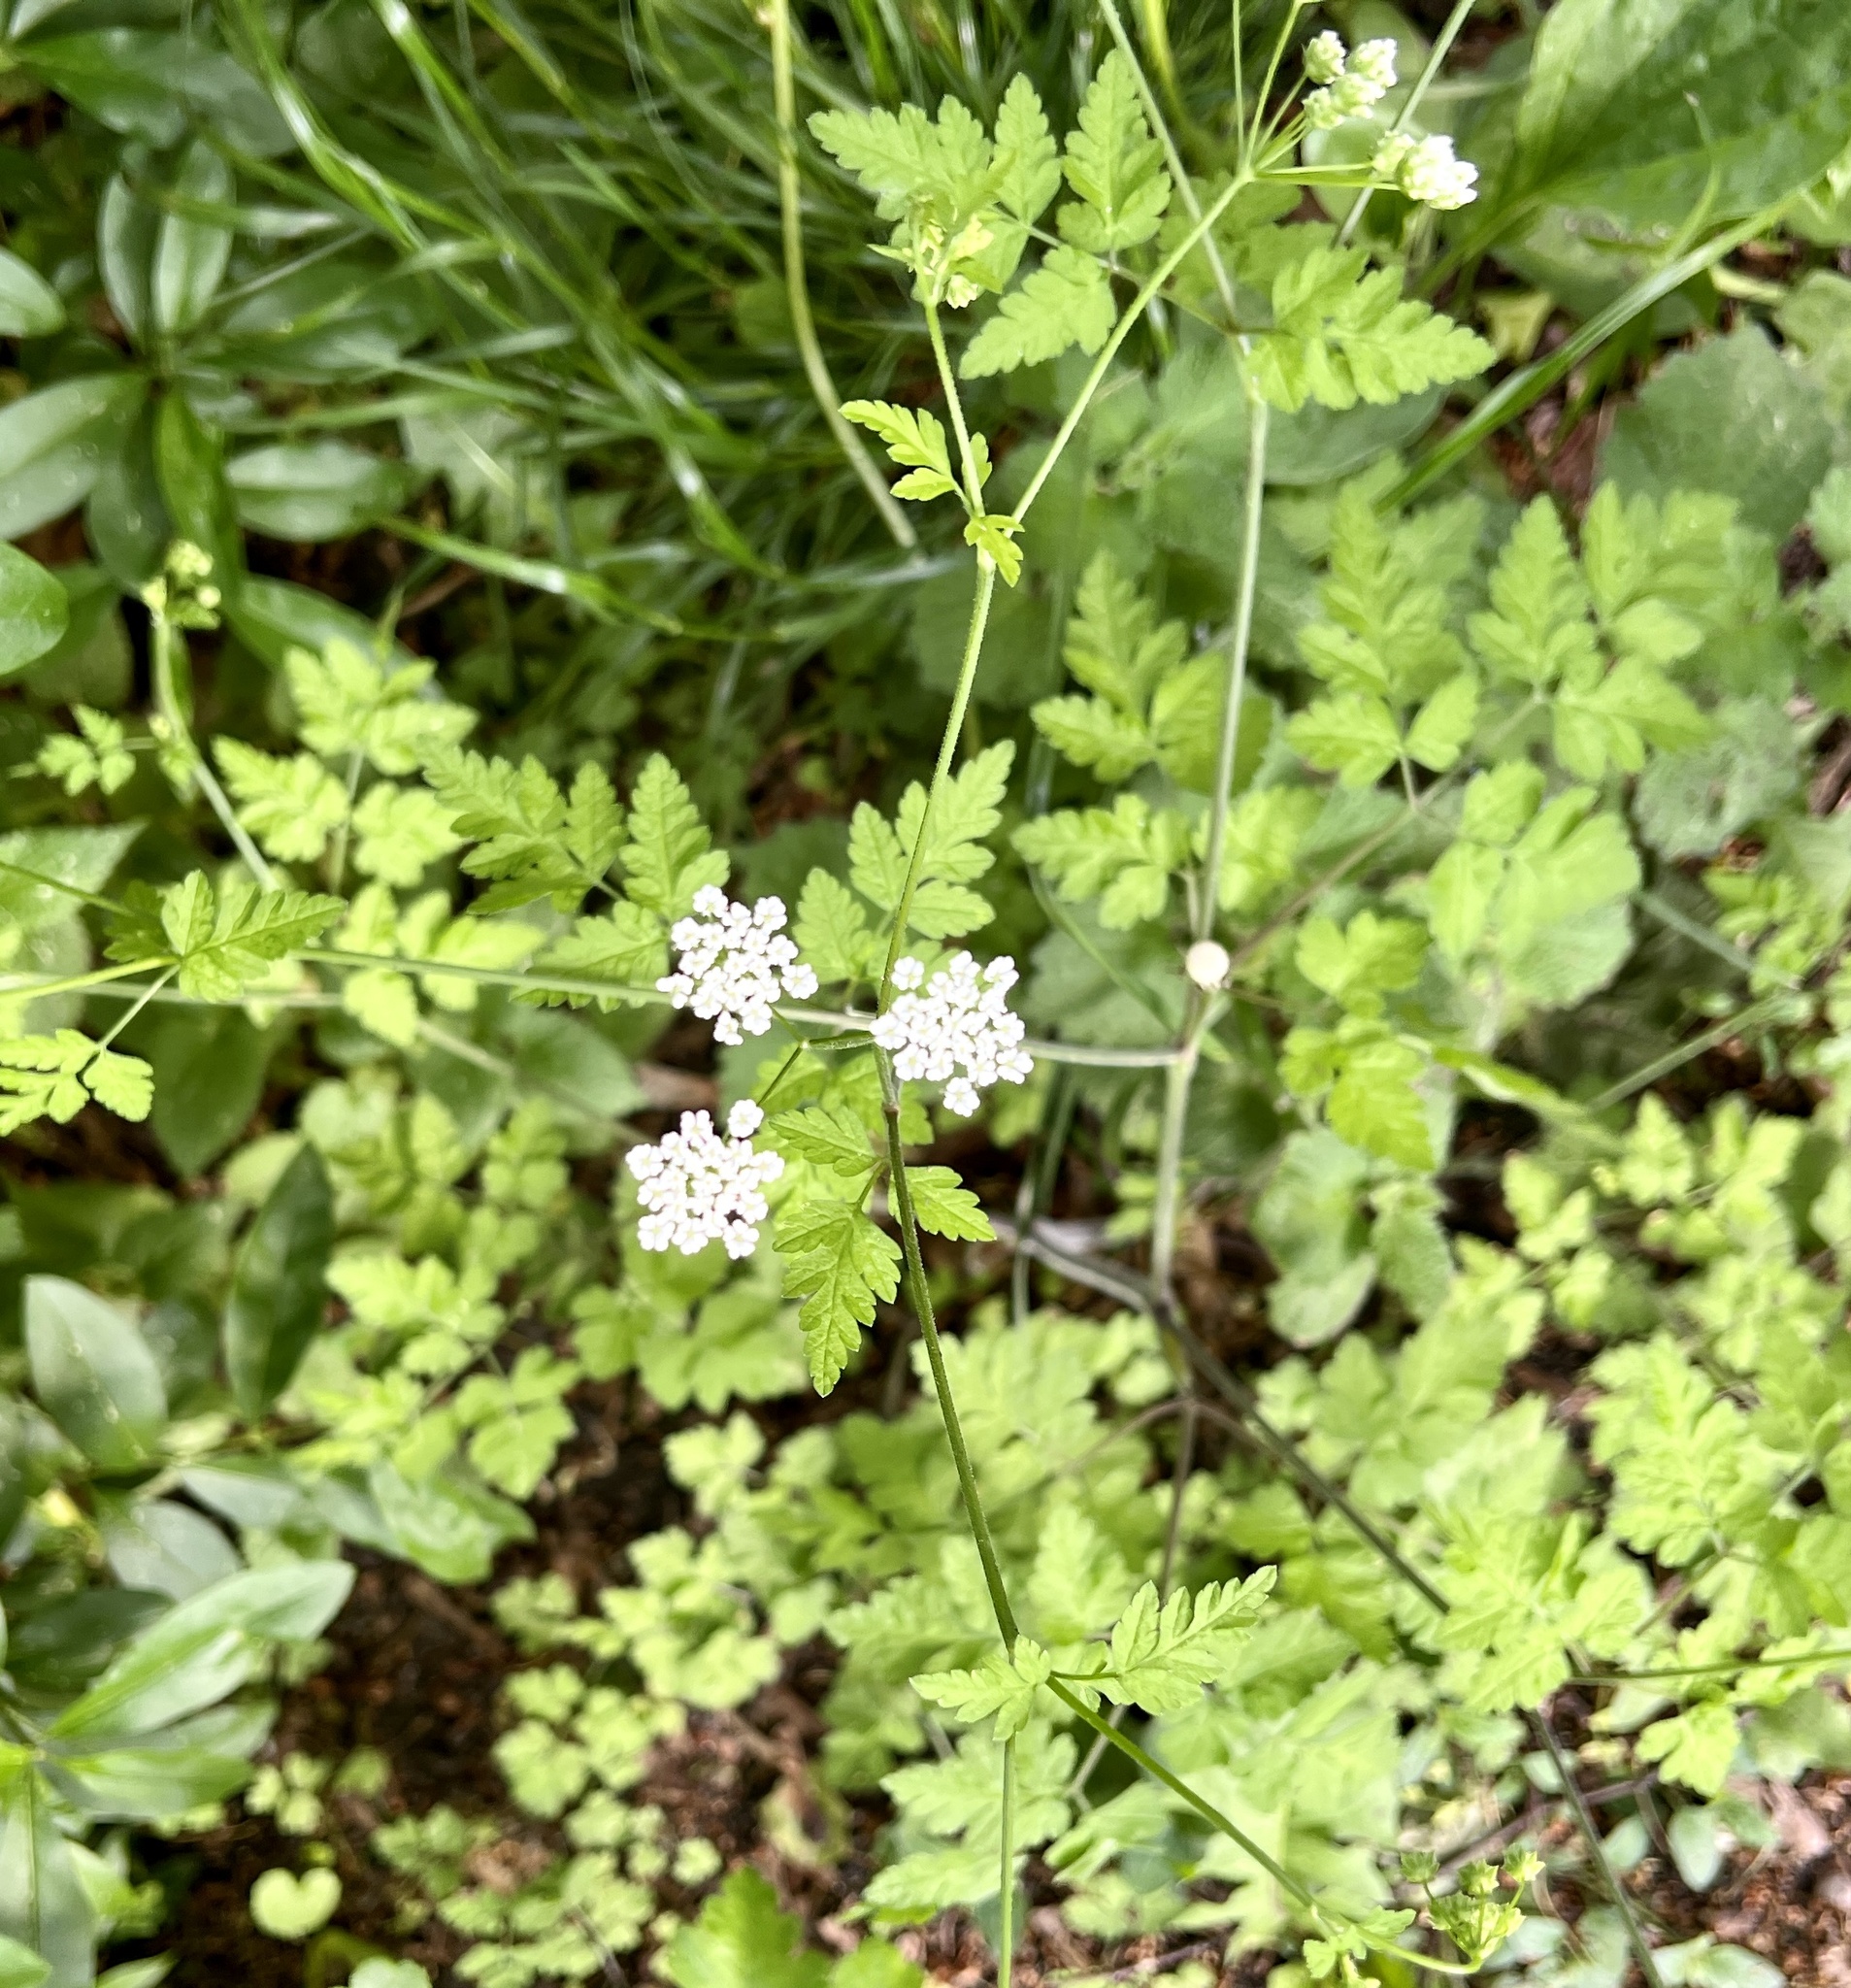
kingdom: Plantae
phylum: Tracheophyta
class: Magnoliopsida
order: Apiales
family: Apiaceae
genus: Chaerophyllum
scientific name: Chaerophyllum temulum
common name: Rough chervil
